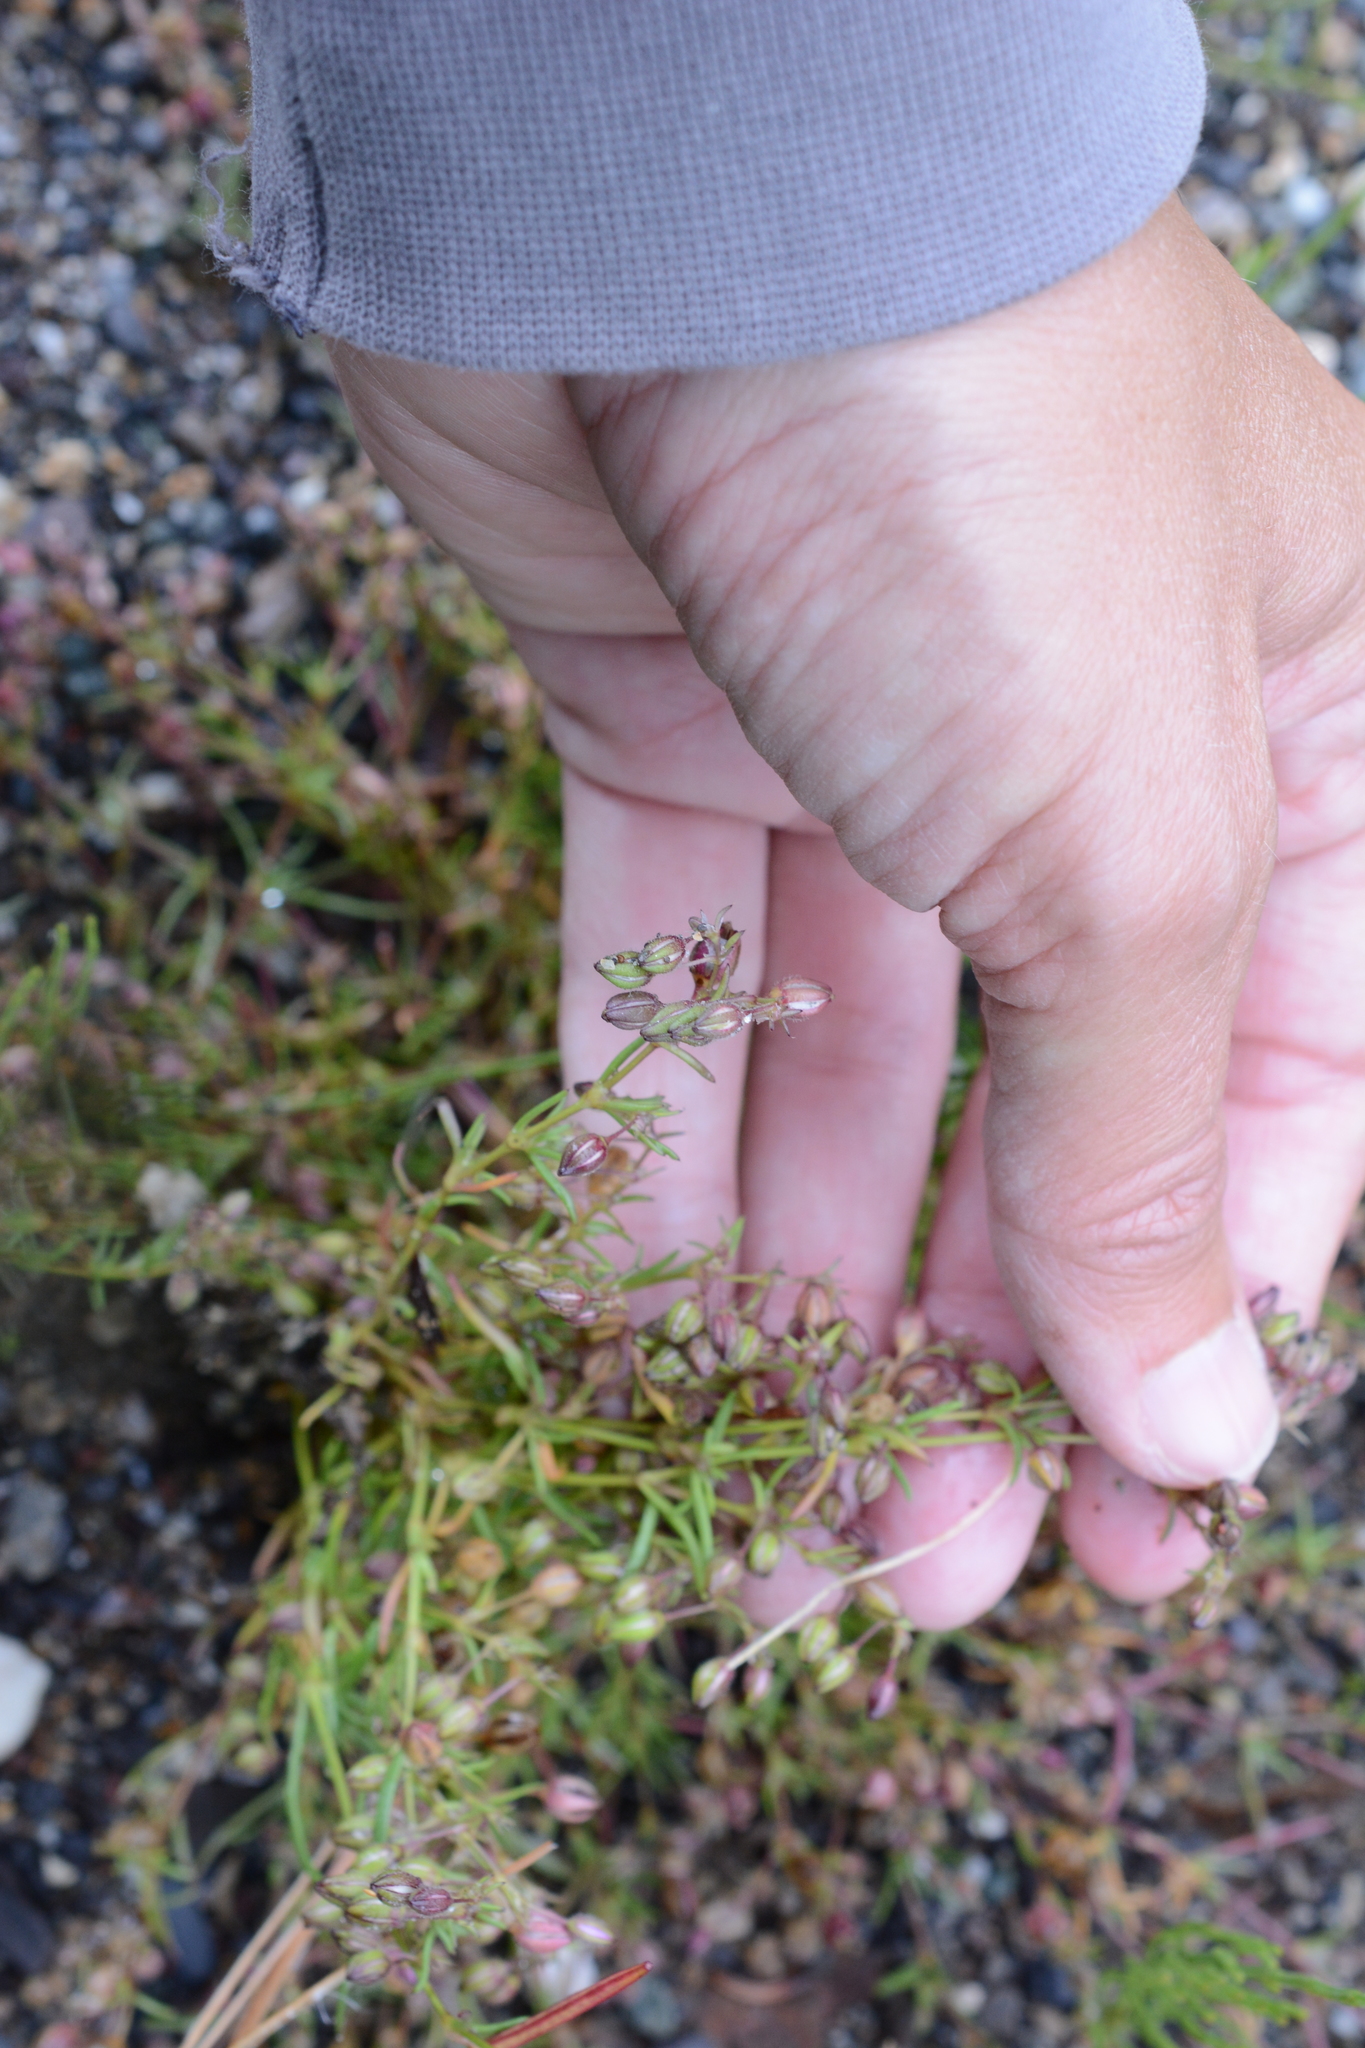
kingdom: Plantae
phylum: Tracheophyta
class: Magnoliopsida
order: Caryophyllales
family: Caryophyllaceae
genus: Spergularia
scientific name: Spergularia rubra
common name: Red sand-spurrey
